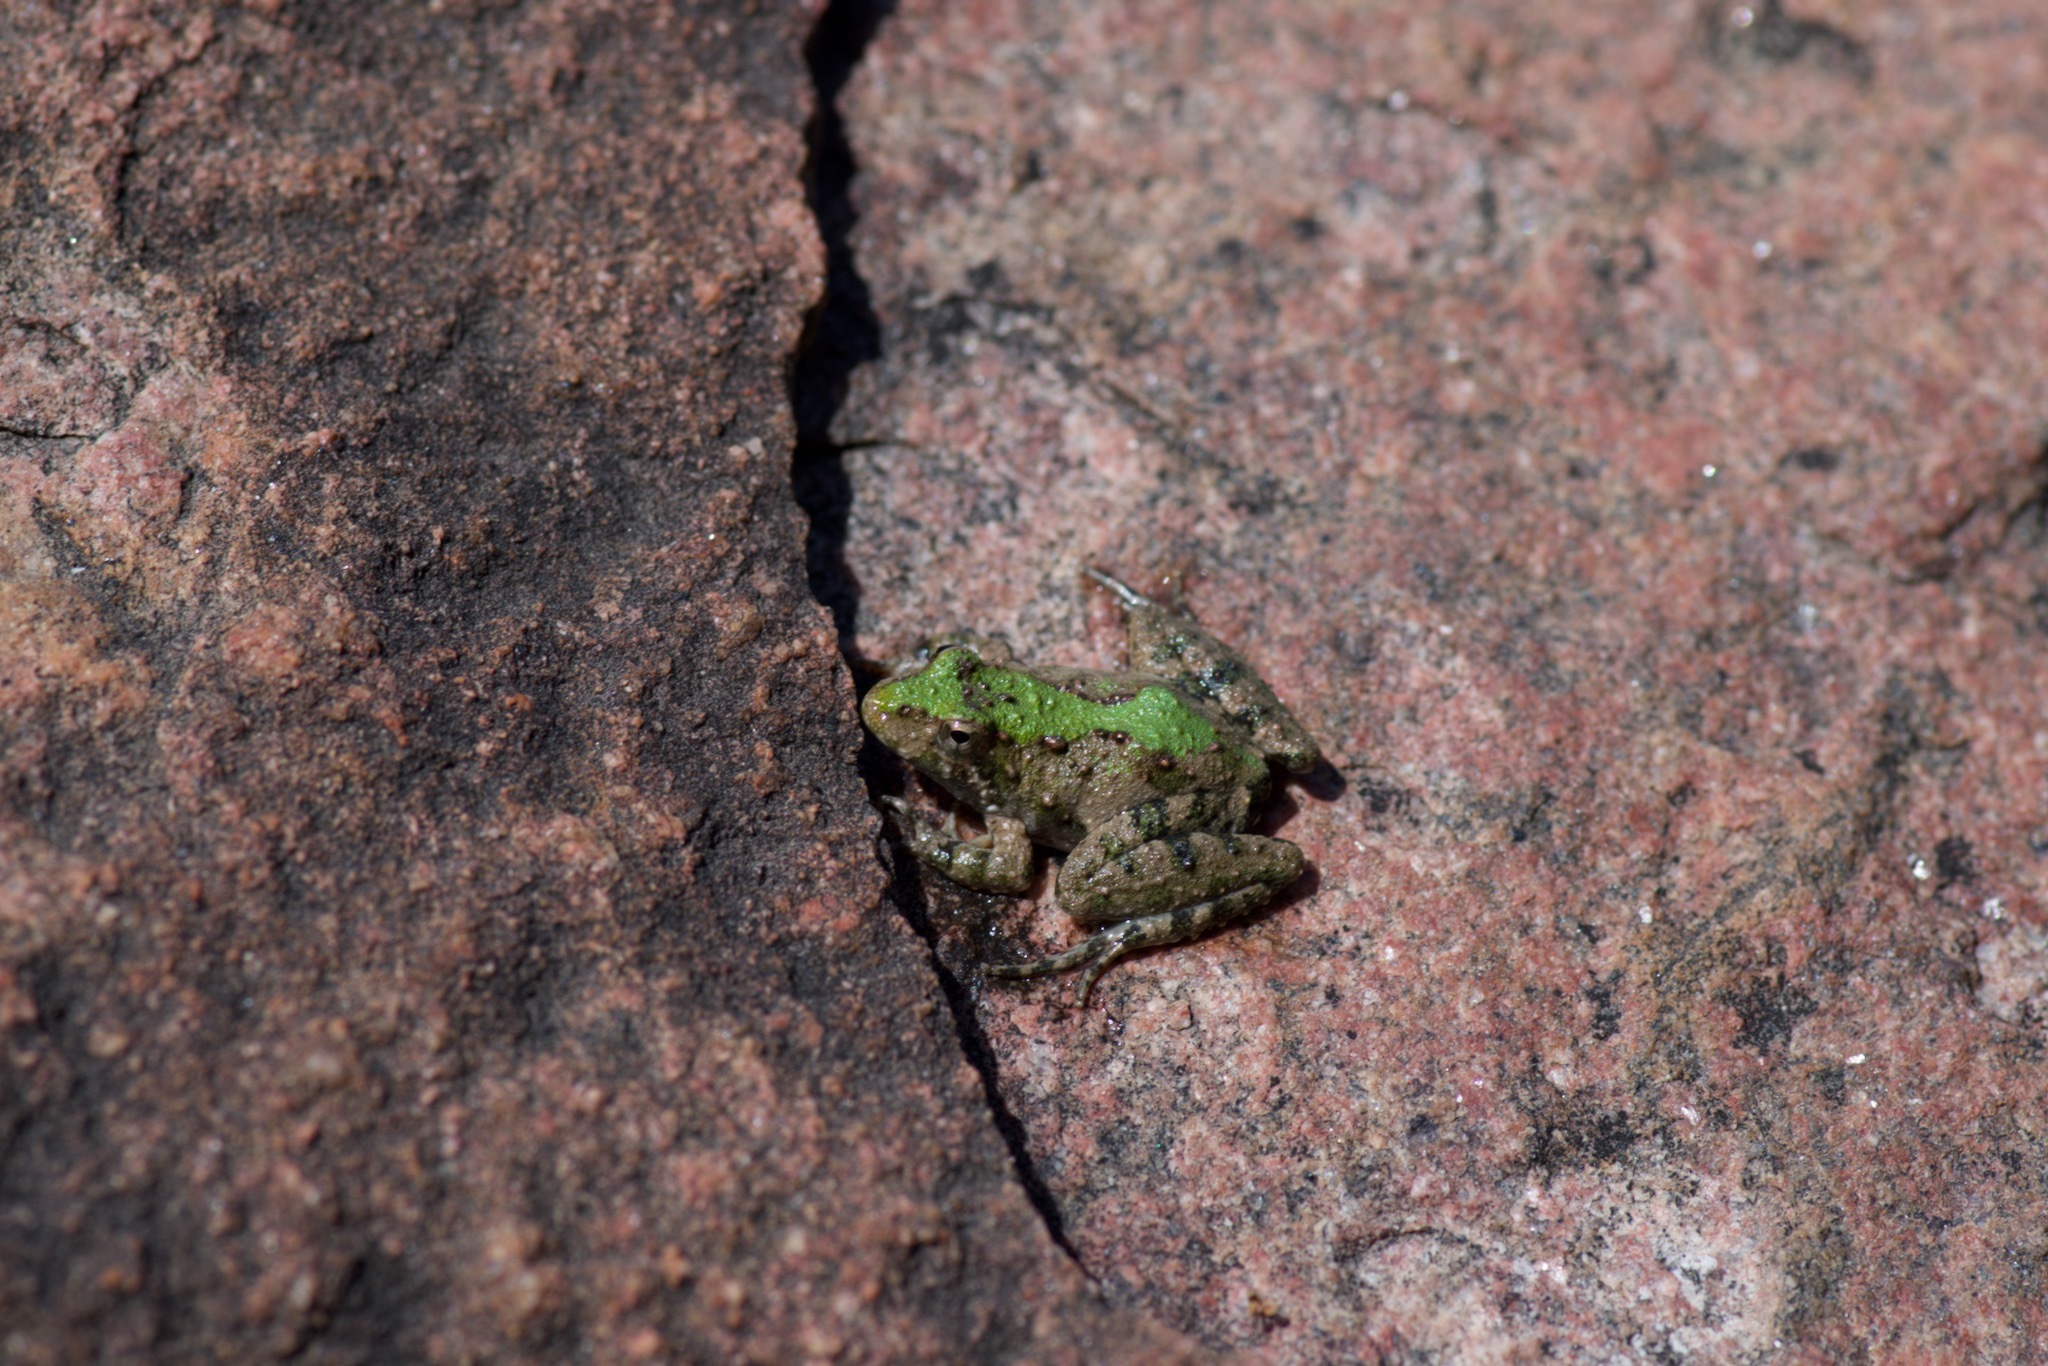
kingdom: Animalia
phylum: Chordata
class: Amphibia
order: Anura
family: Hylidae
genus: Acris
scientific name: Acris blanchardi
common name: Blanchard's cricket frog
